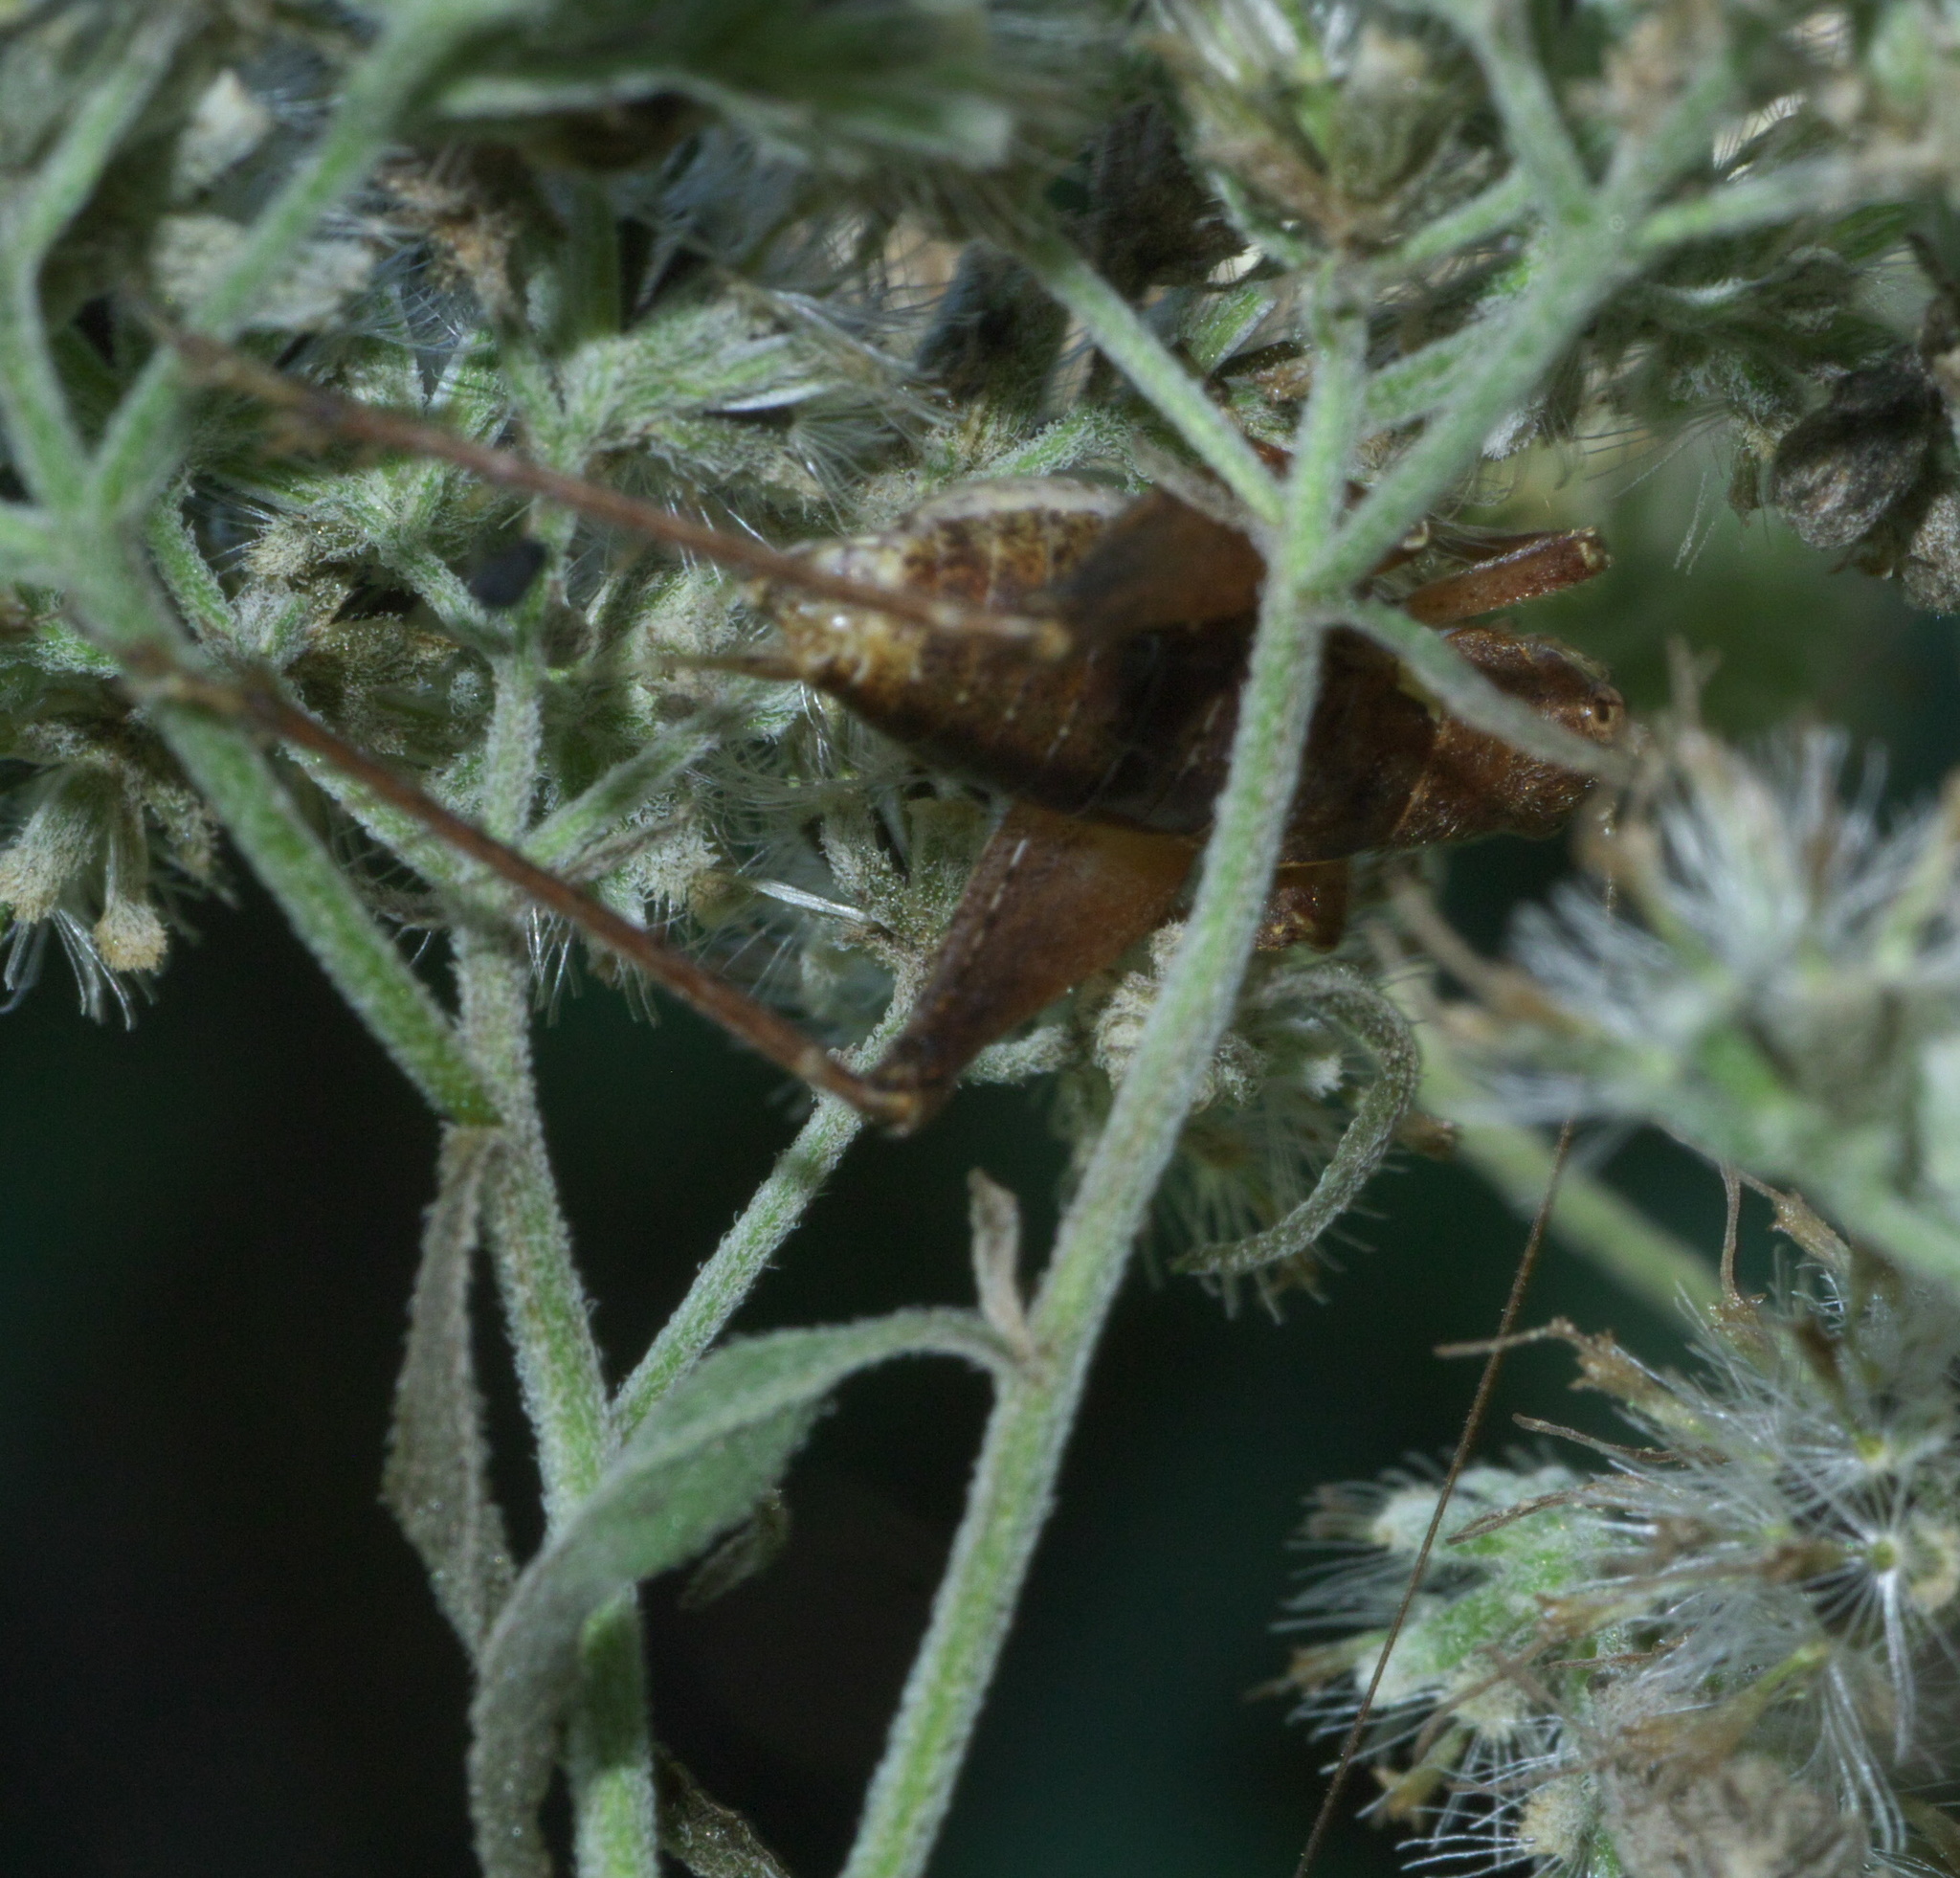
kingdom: Animalia
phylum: Arthropoda
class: Insecta
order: Orthoptera
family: Gryllidae
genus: Hapithus
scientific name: Hapithus agitator
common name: Restless bush cricket
